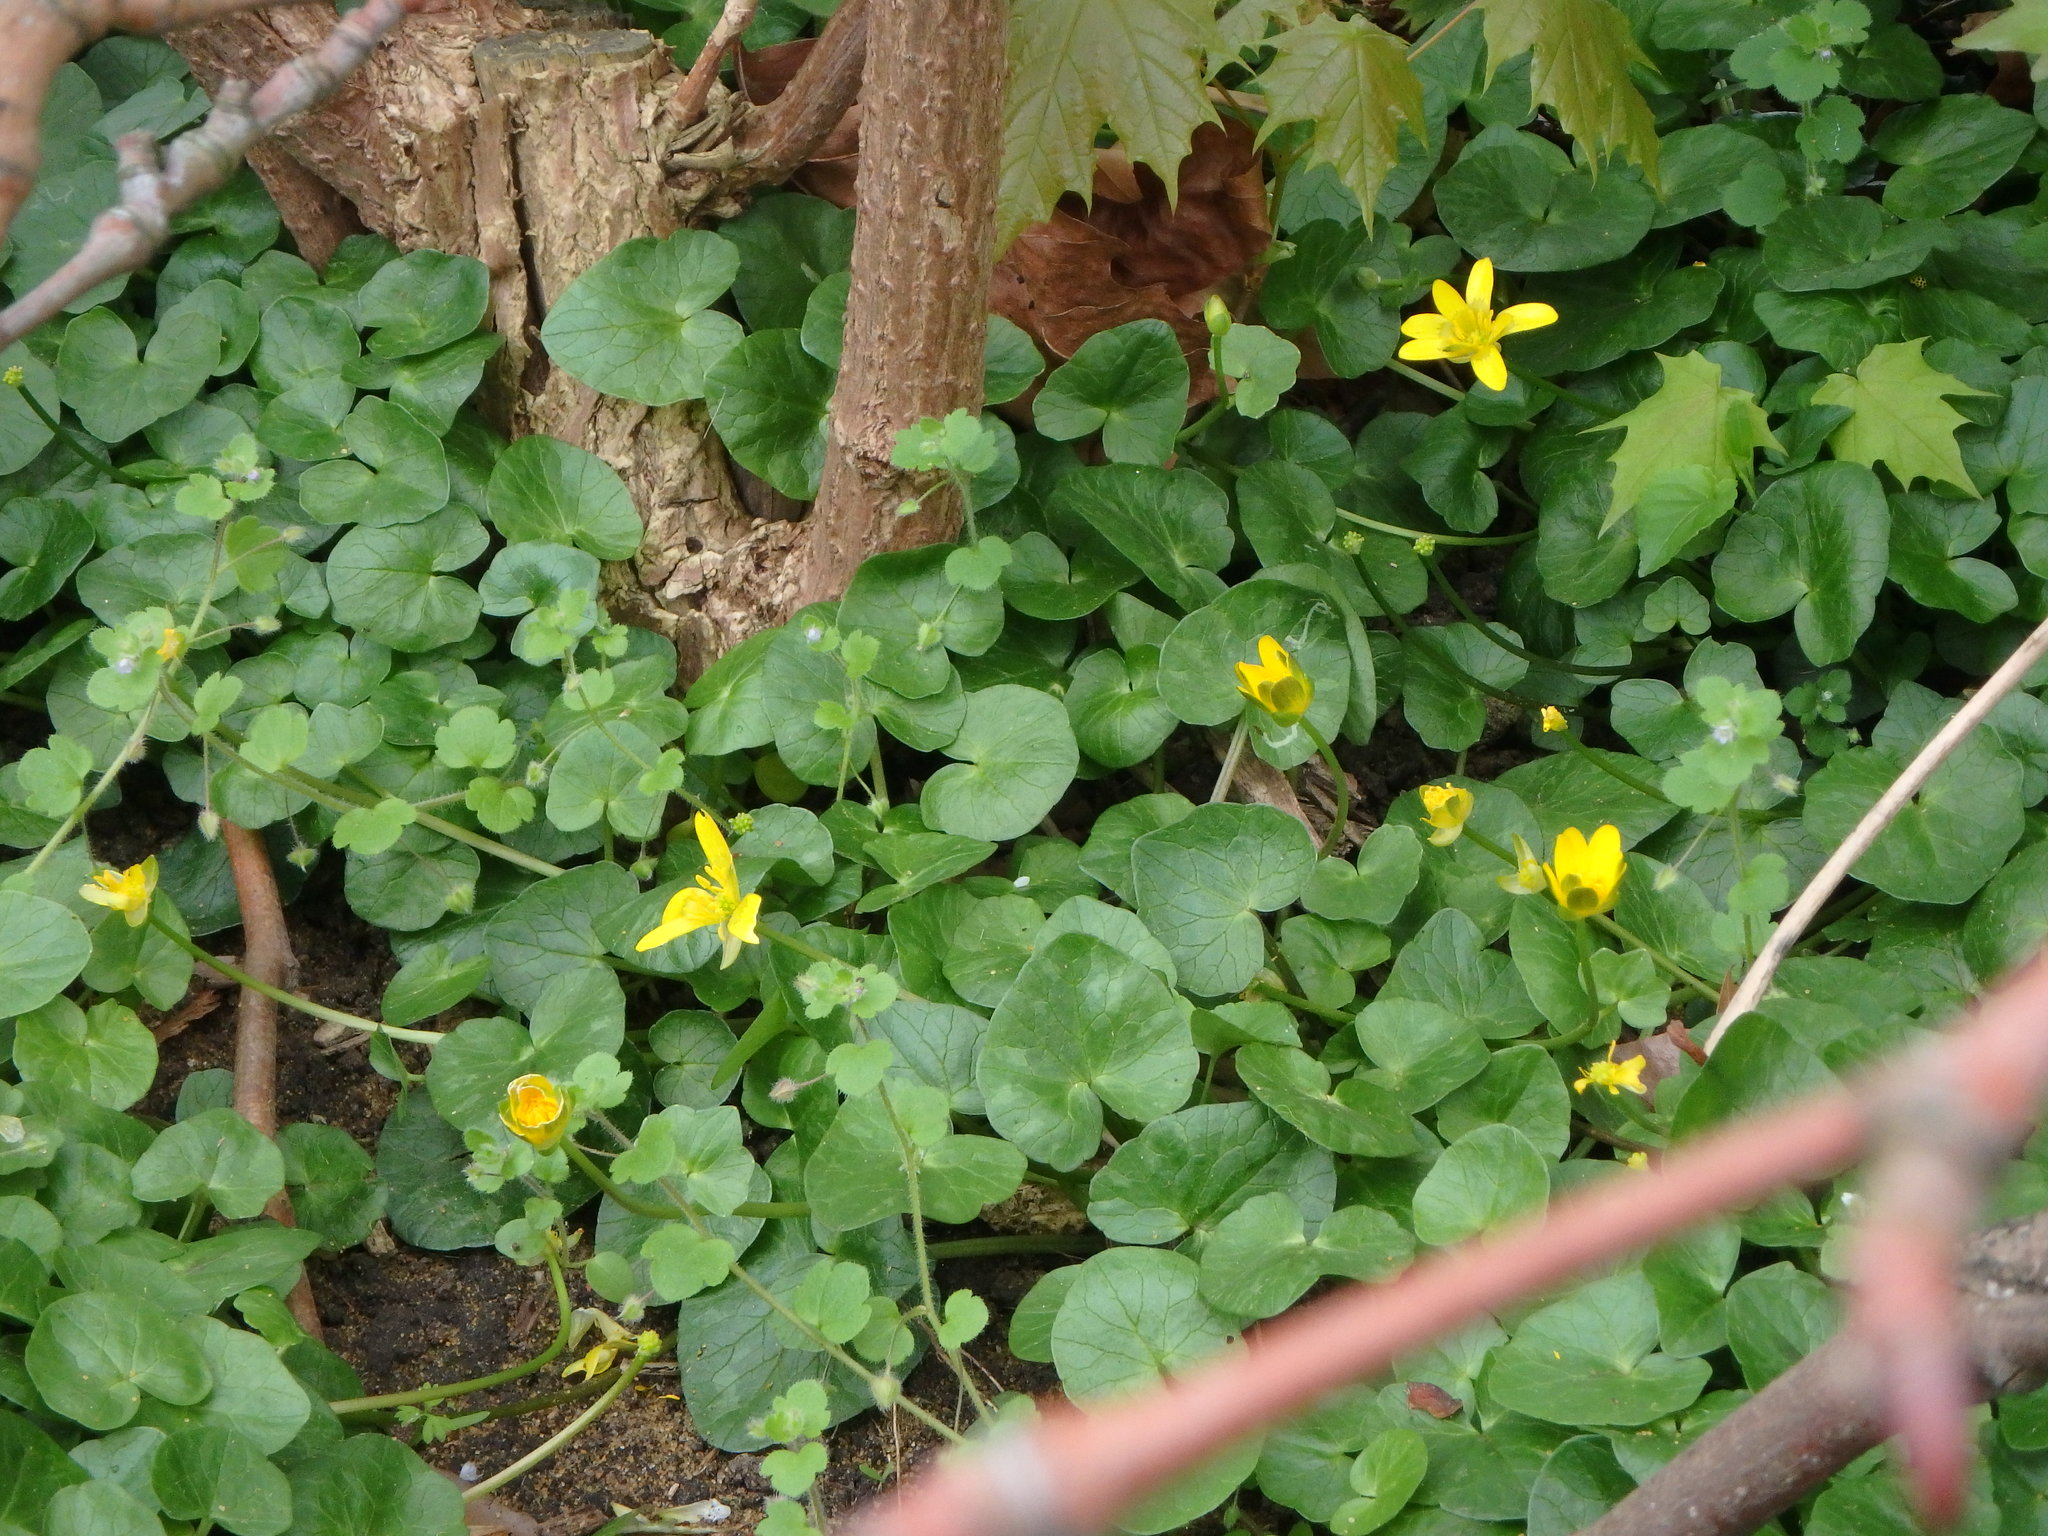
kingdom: Plantae
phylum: Tracheophyta
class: Magnoliopsida
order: Ranunculales
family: Ranunculaceae
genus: Ficaria
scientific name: Ficaria verna
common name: Lesser celandine
